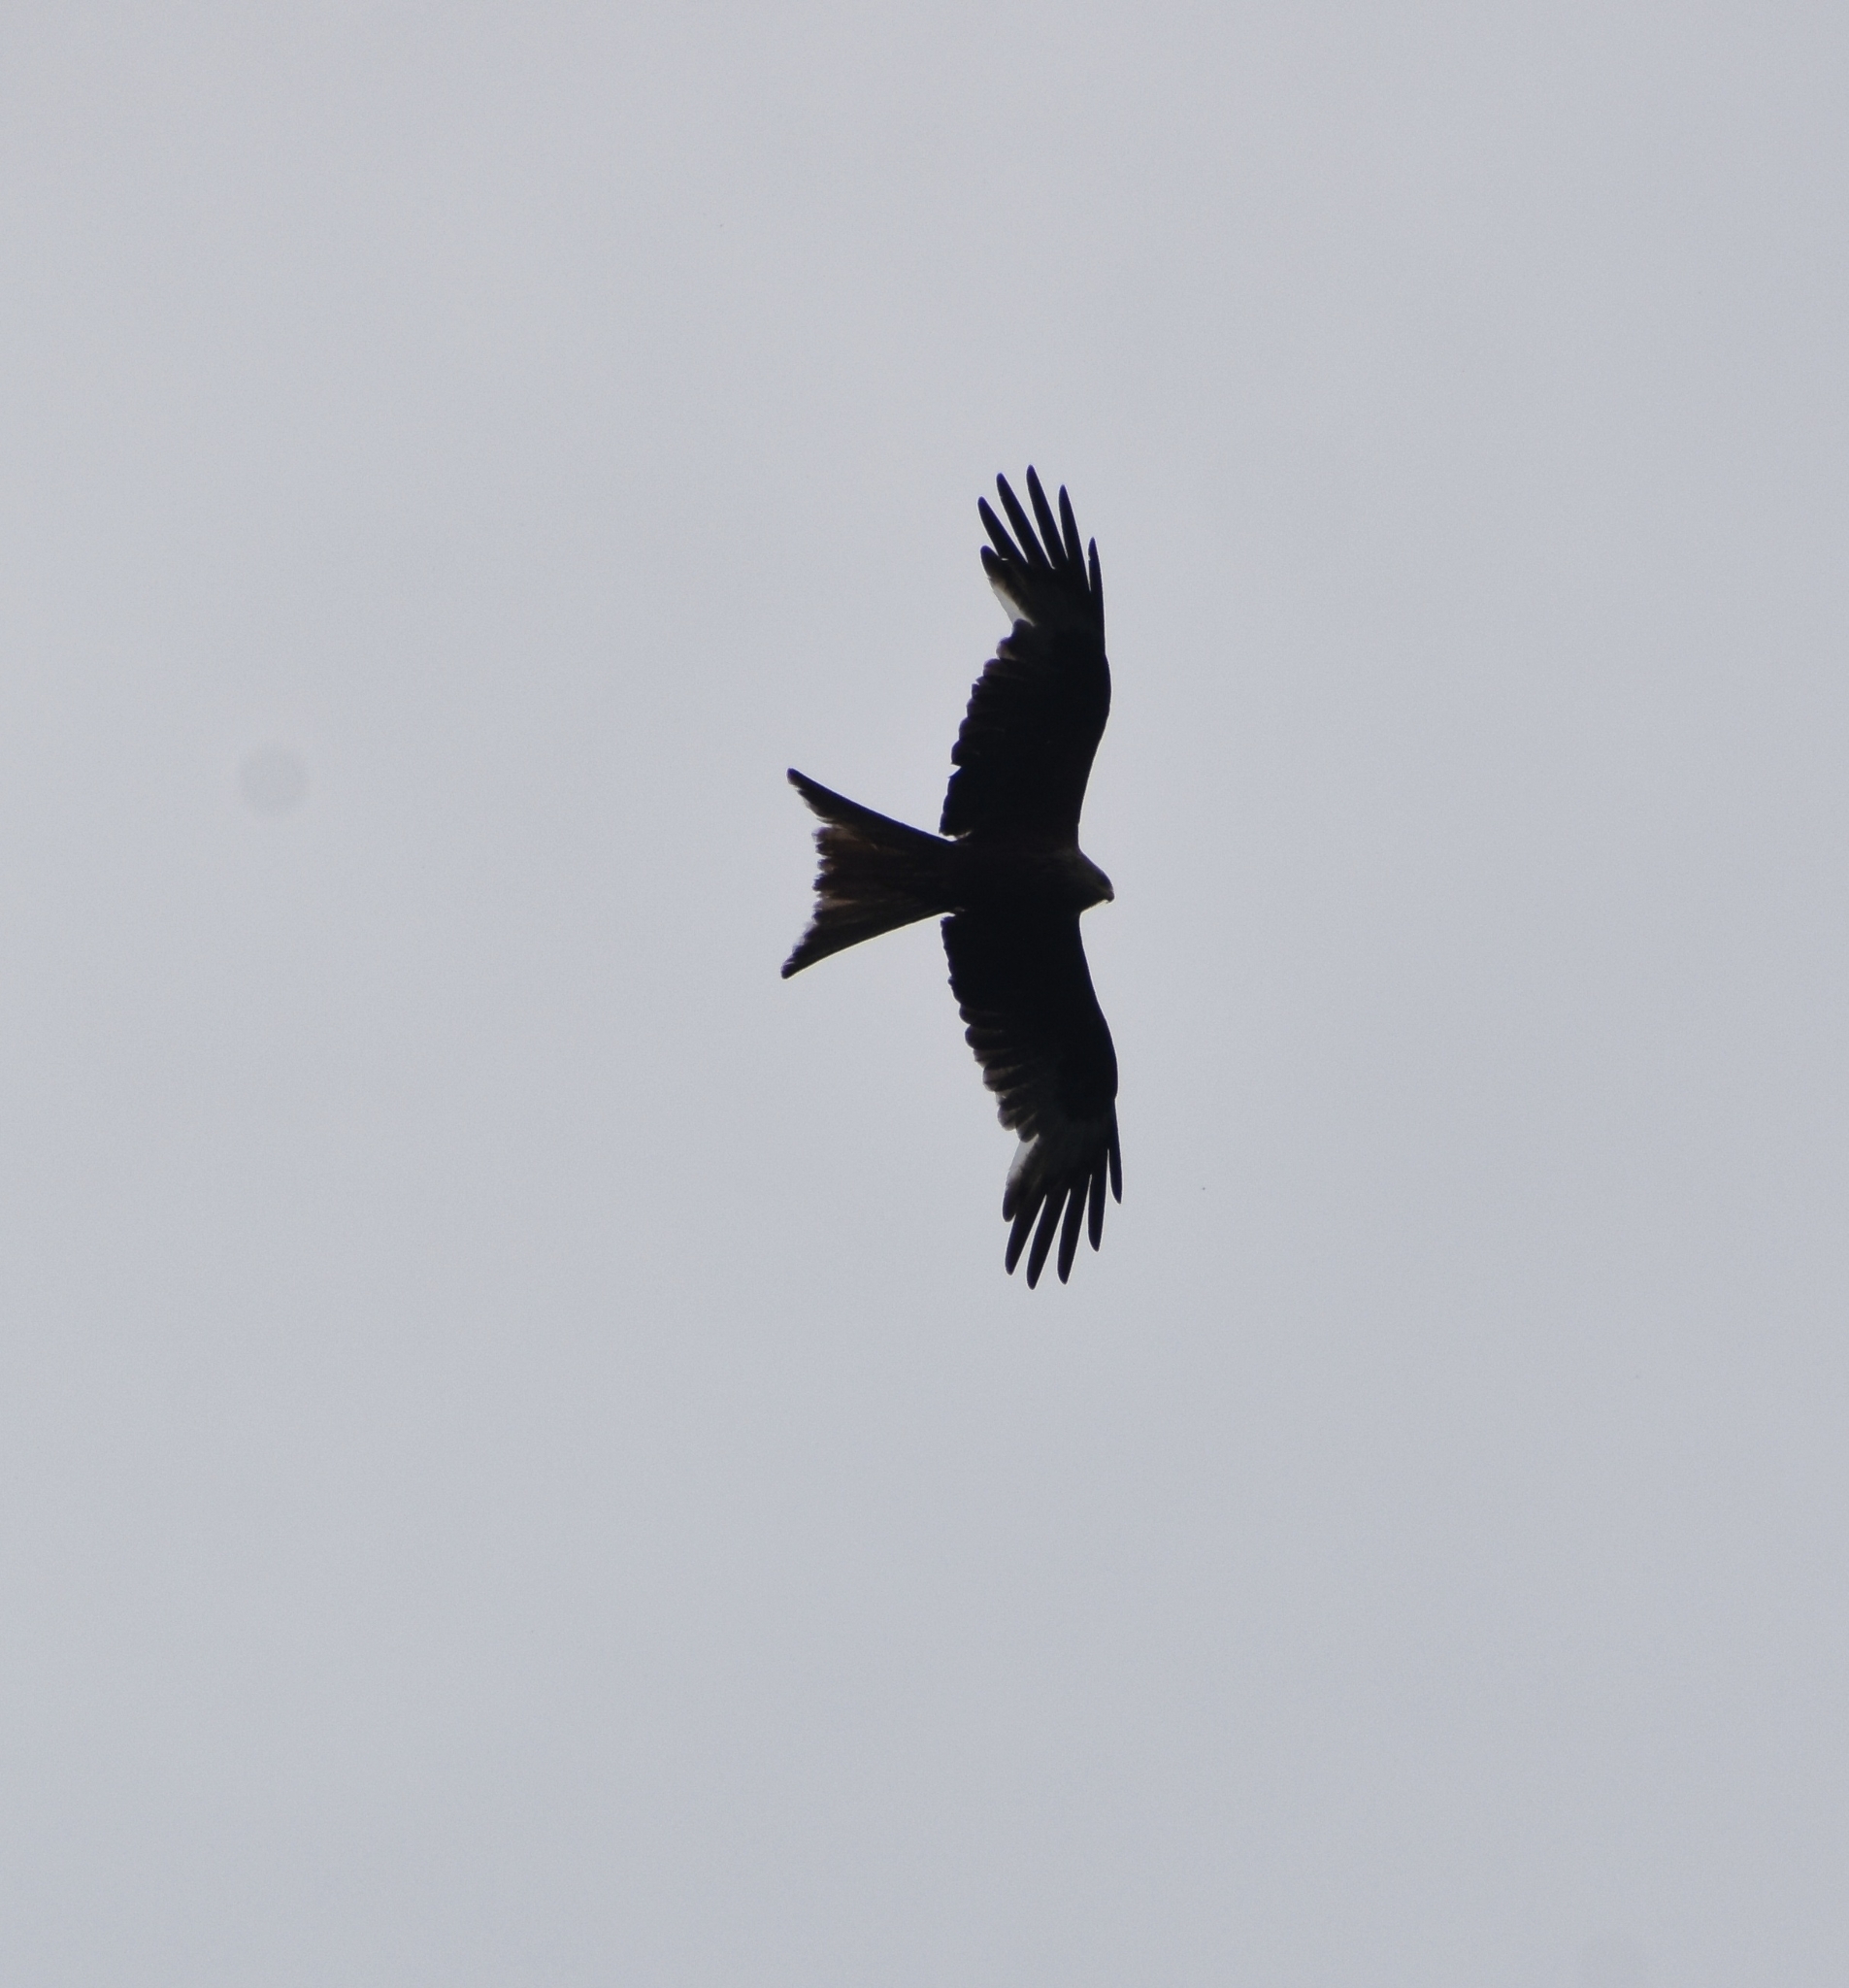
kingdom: Animalia
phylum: Chordata
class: Aves
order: Accipitriformes
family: Accipitridae
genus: Milvus
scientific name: Milvus milvus
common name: Red kite
